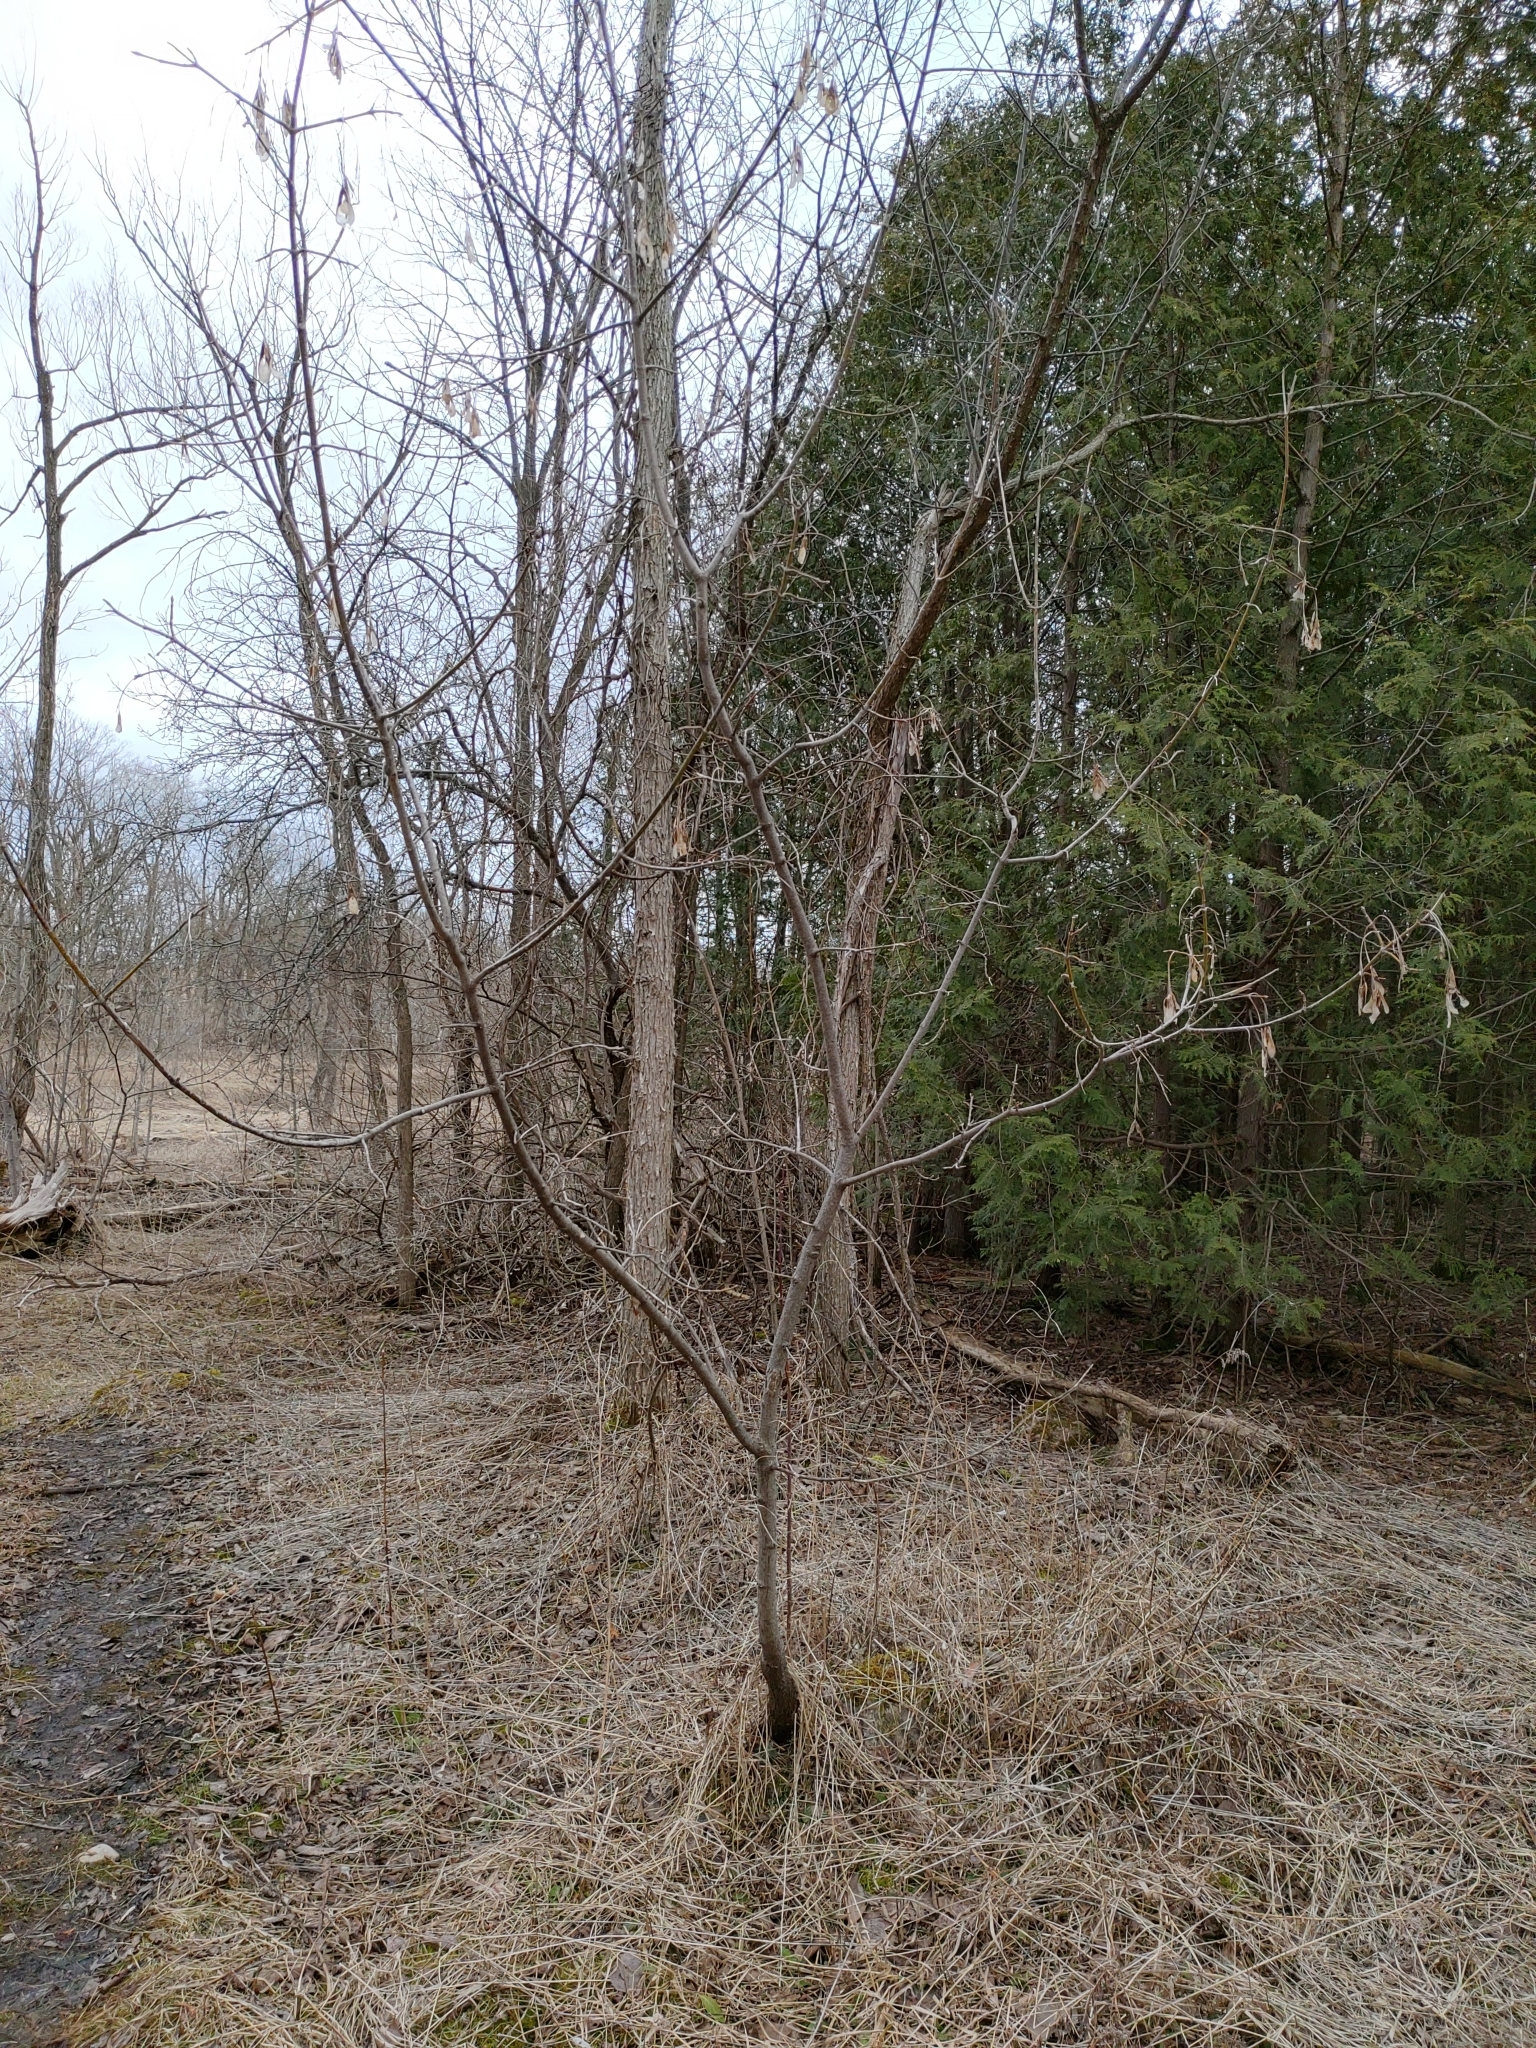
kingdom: Plantae
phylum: Tracheophyta
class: Magnoliopsida
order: Sapindales
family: Sapindaceae
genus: Acer
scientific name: Acer negundo
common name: Ashleaf maple
